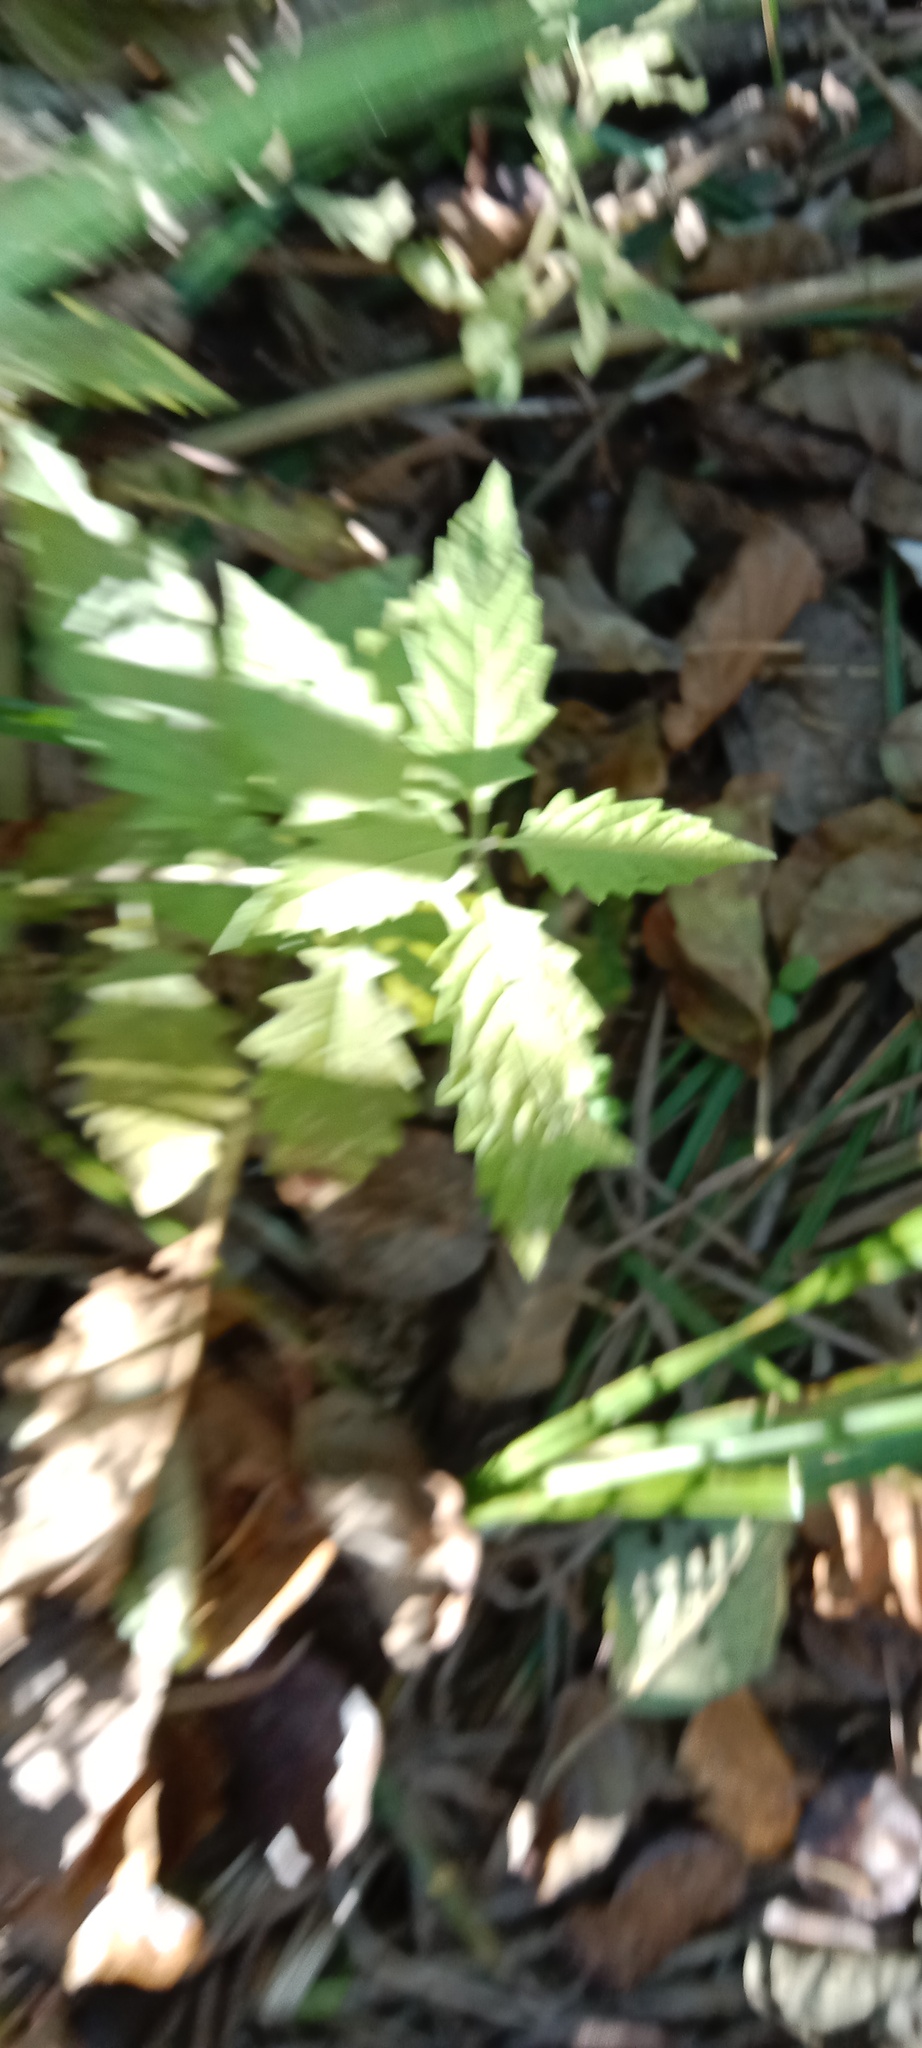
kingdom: Plantae
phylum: Tracheophyta
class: Magnoliopsida
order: Lamiales
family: Lamiaceae
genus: Lycopus
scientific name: Lycopus europaeus
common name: European bugleweed
